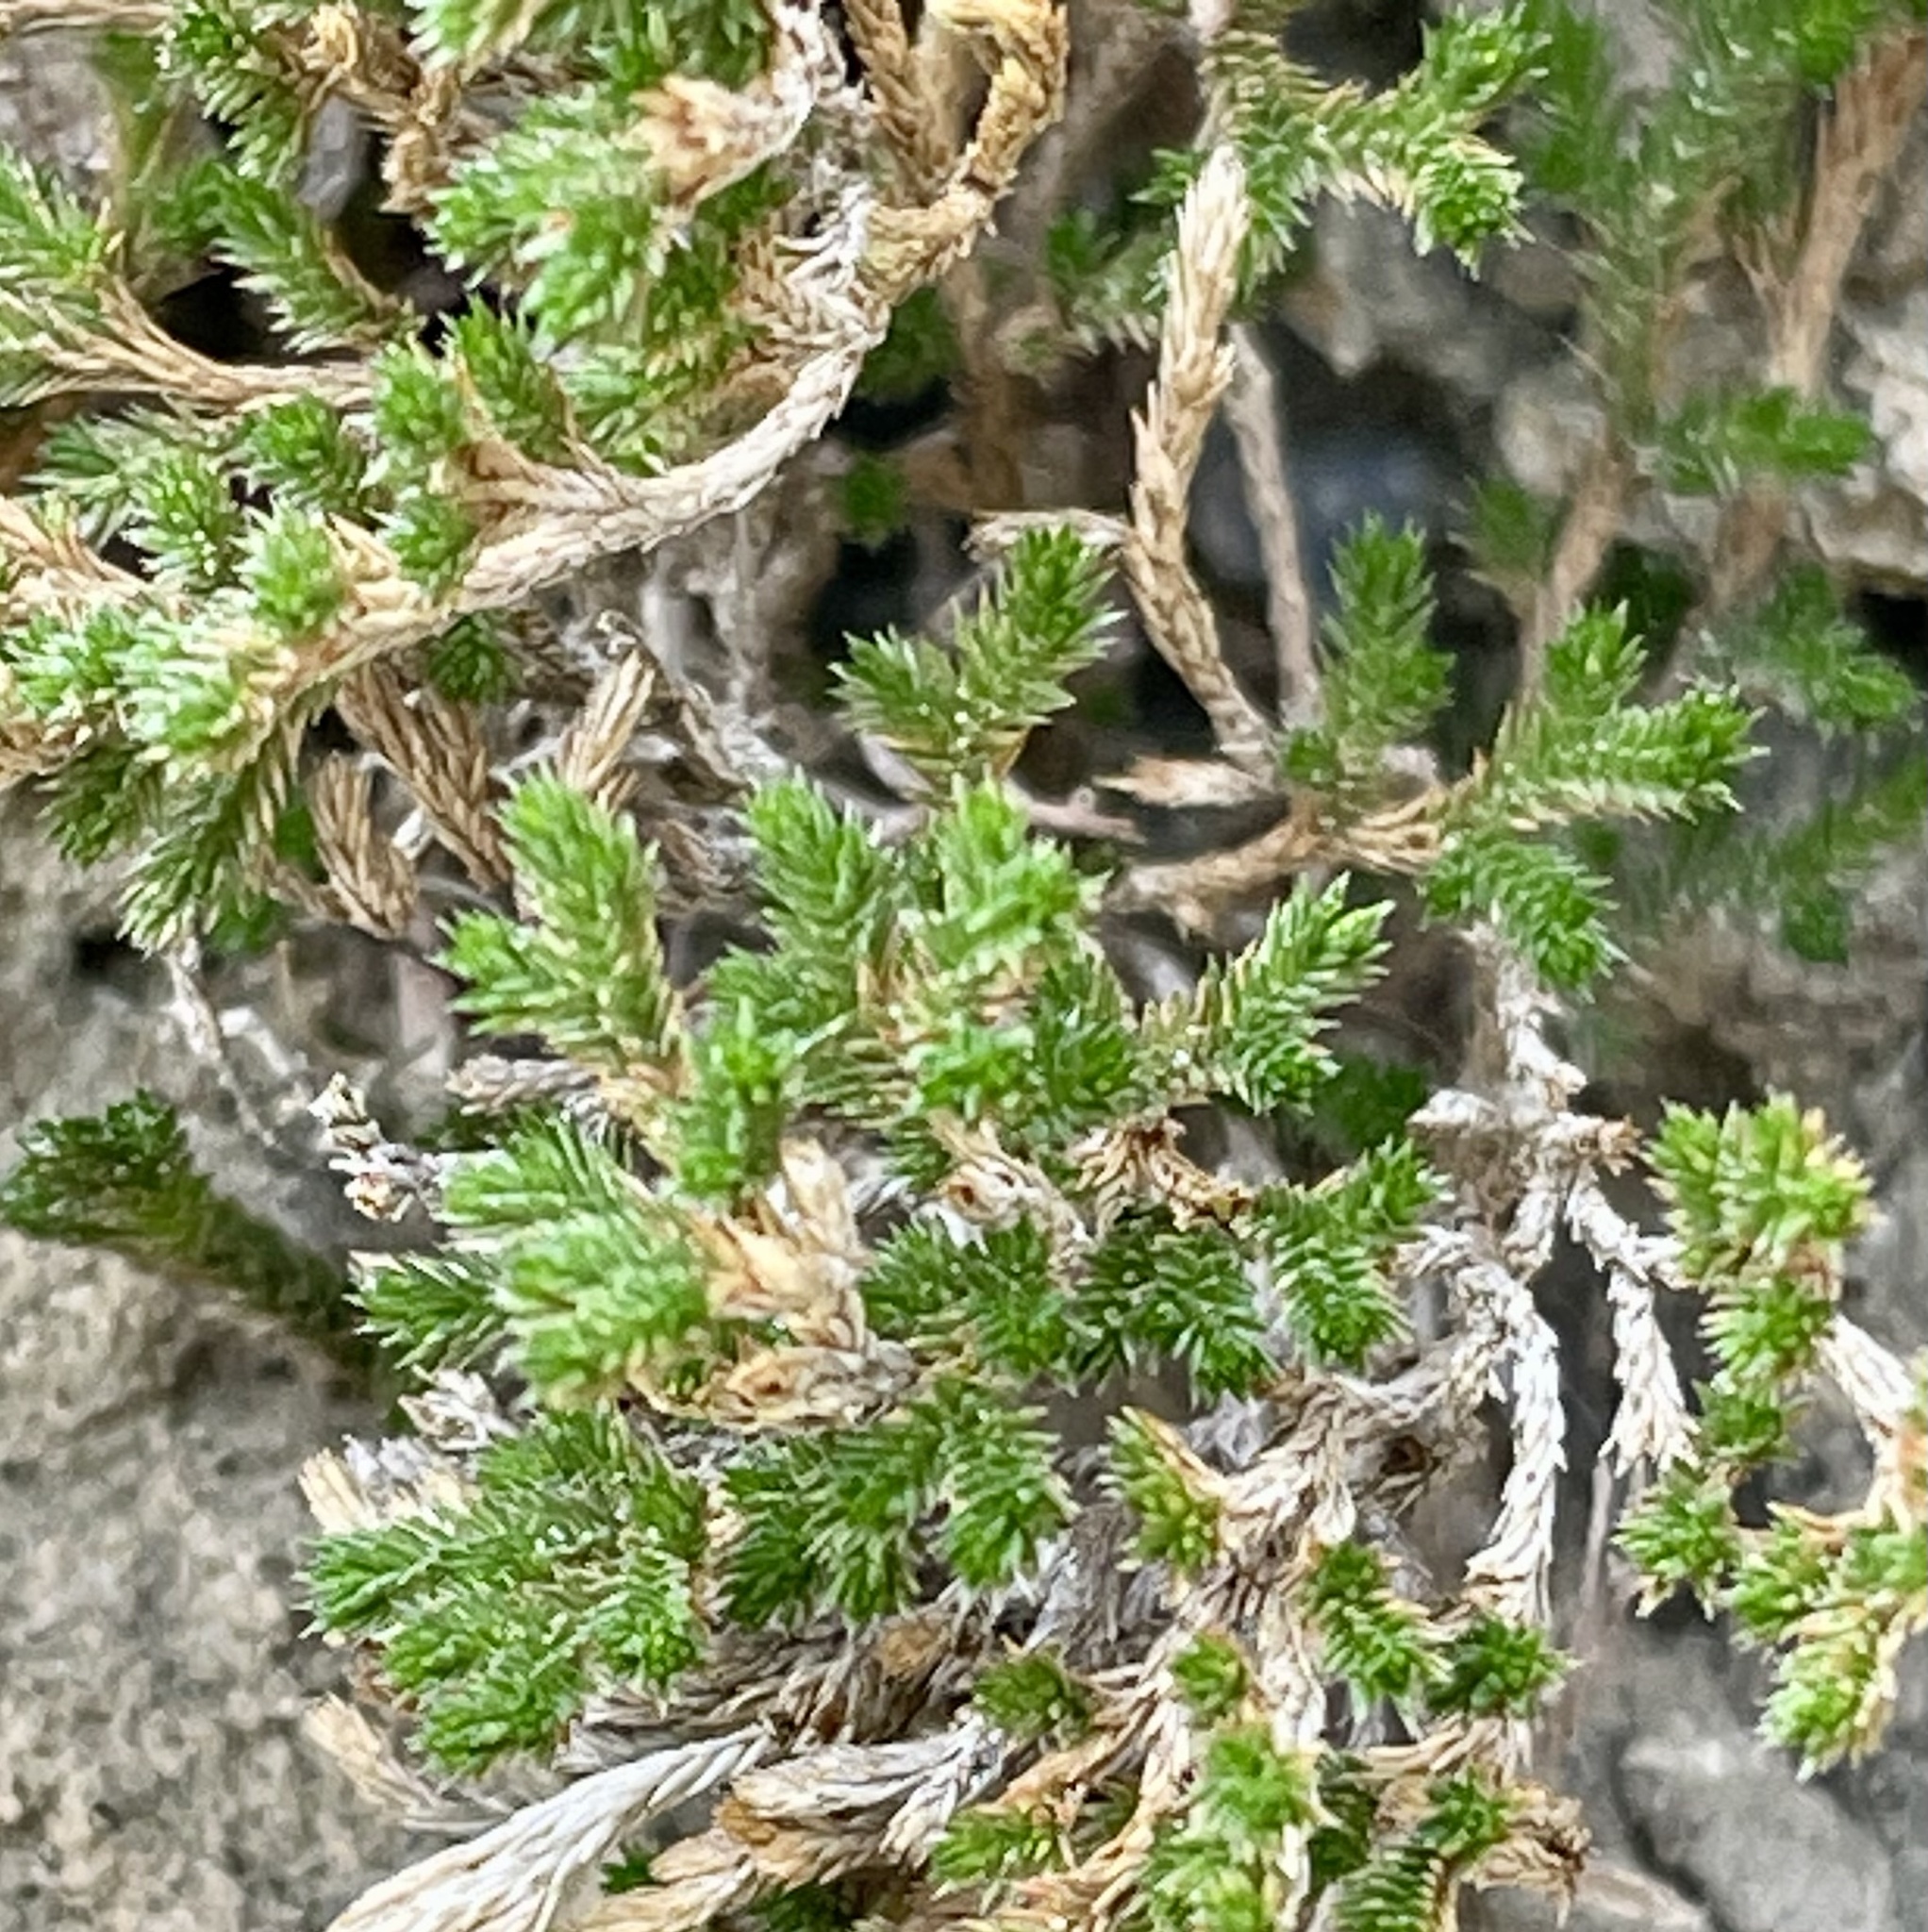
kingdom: Plantae
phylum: Tracheophyta
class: Lycopodiopsida
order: Selaginellales
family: Selaginellaceae
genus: Selaginella
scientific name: Selaginella bigelovii
